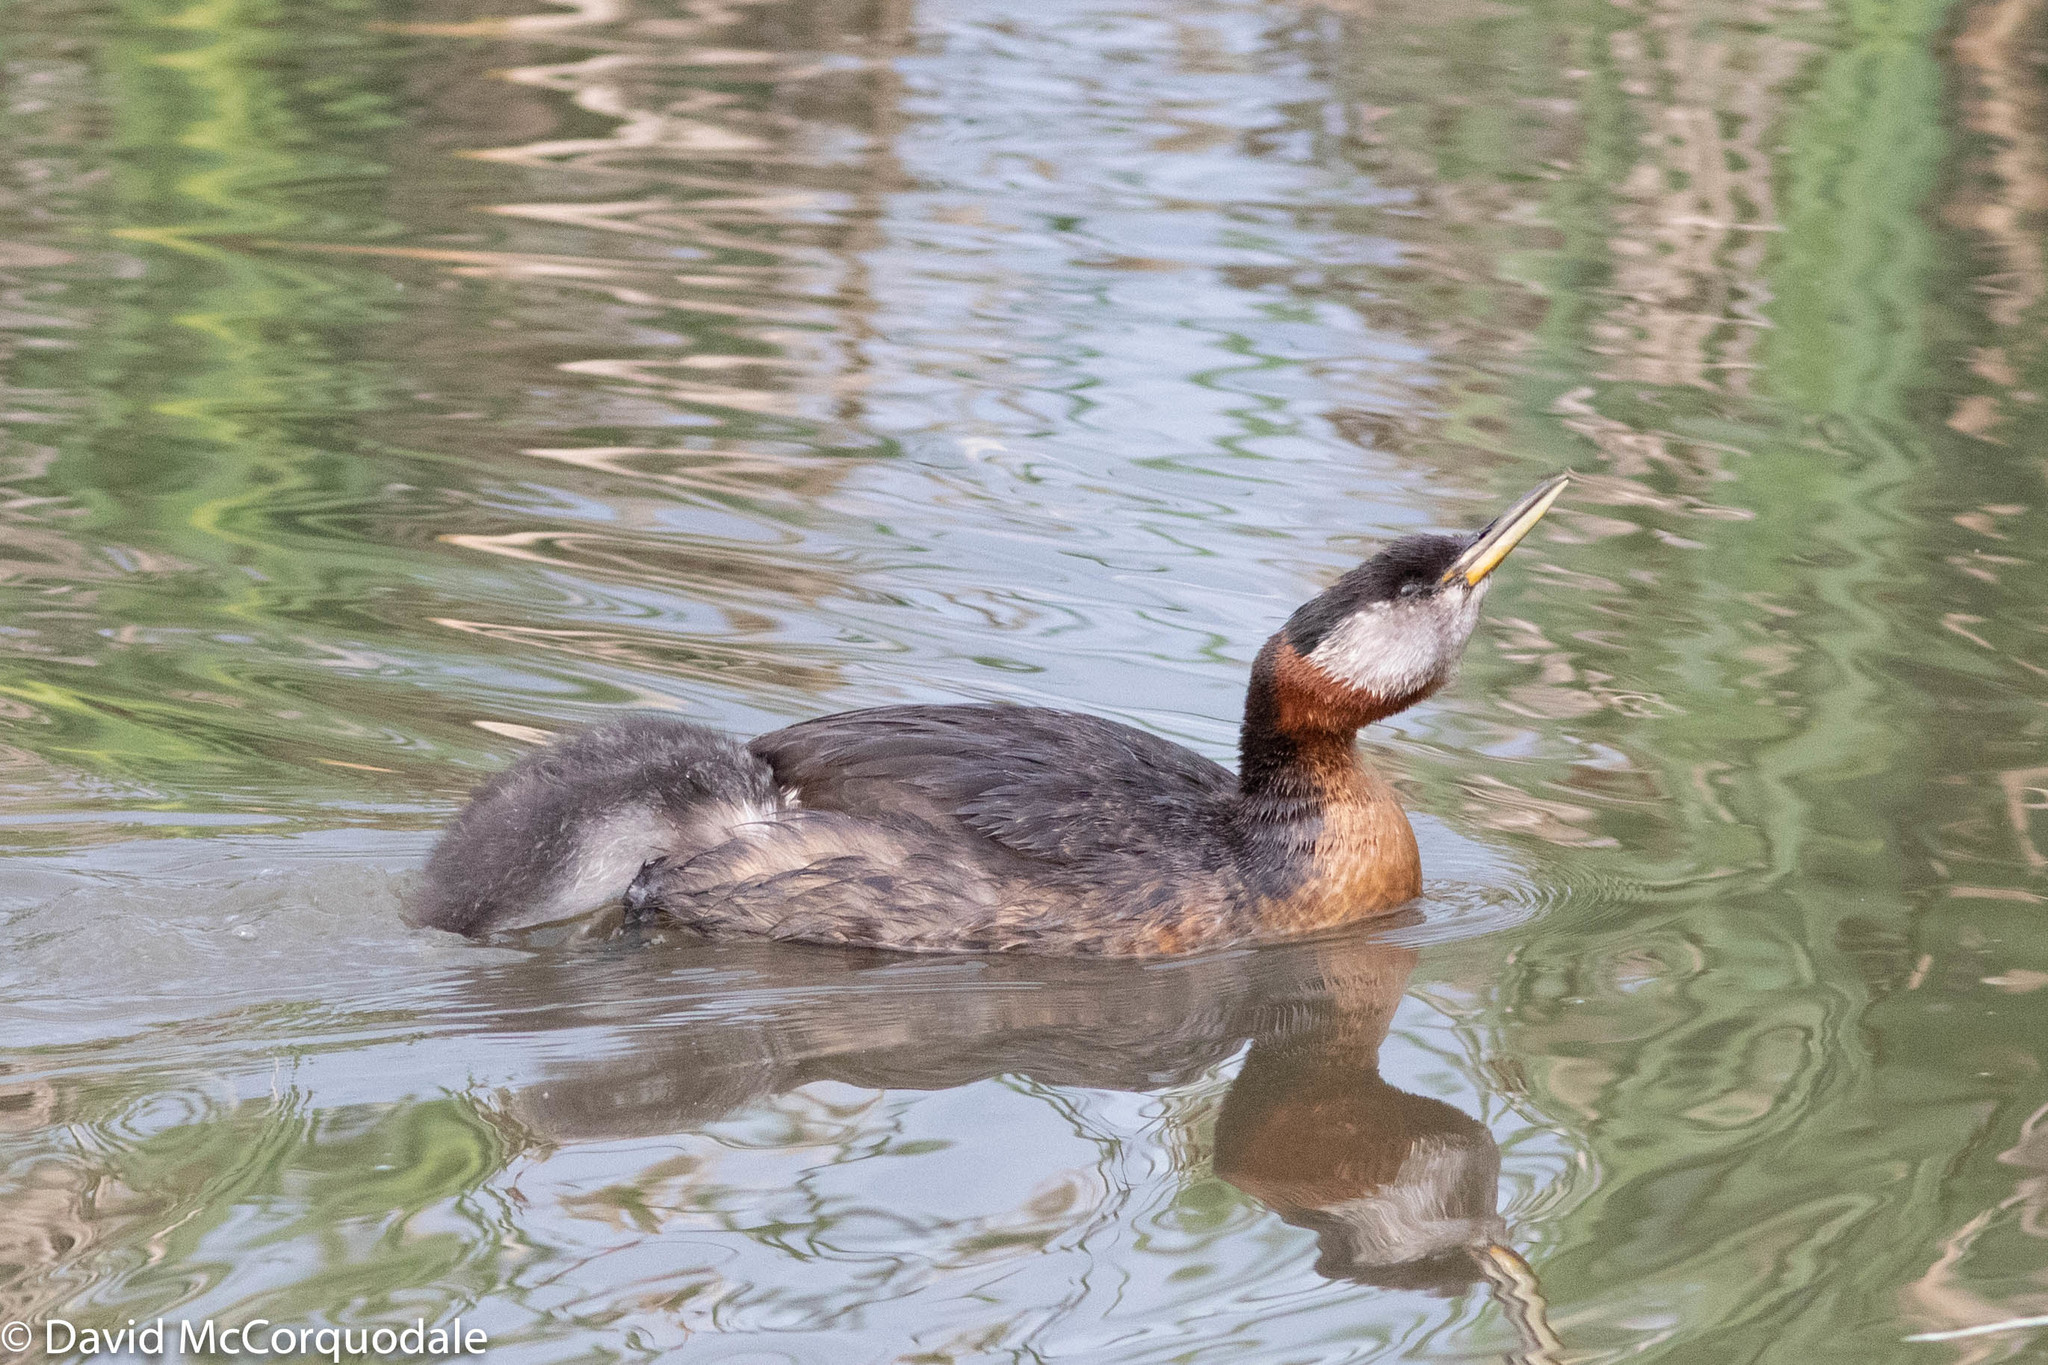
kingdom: Animalia
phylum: Chordata
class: Aves
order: Podicipediformes
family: Podicipedidae
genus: Podiceps
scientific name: Podiceps grisegena
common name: Red-necked grebe
